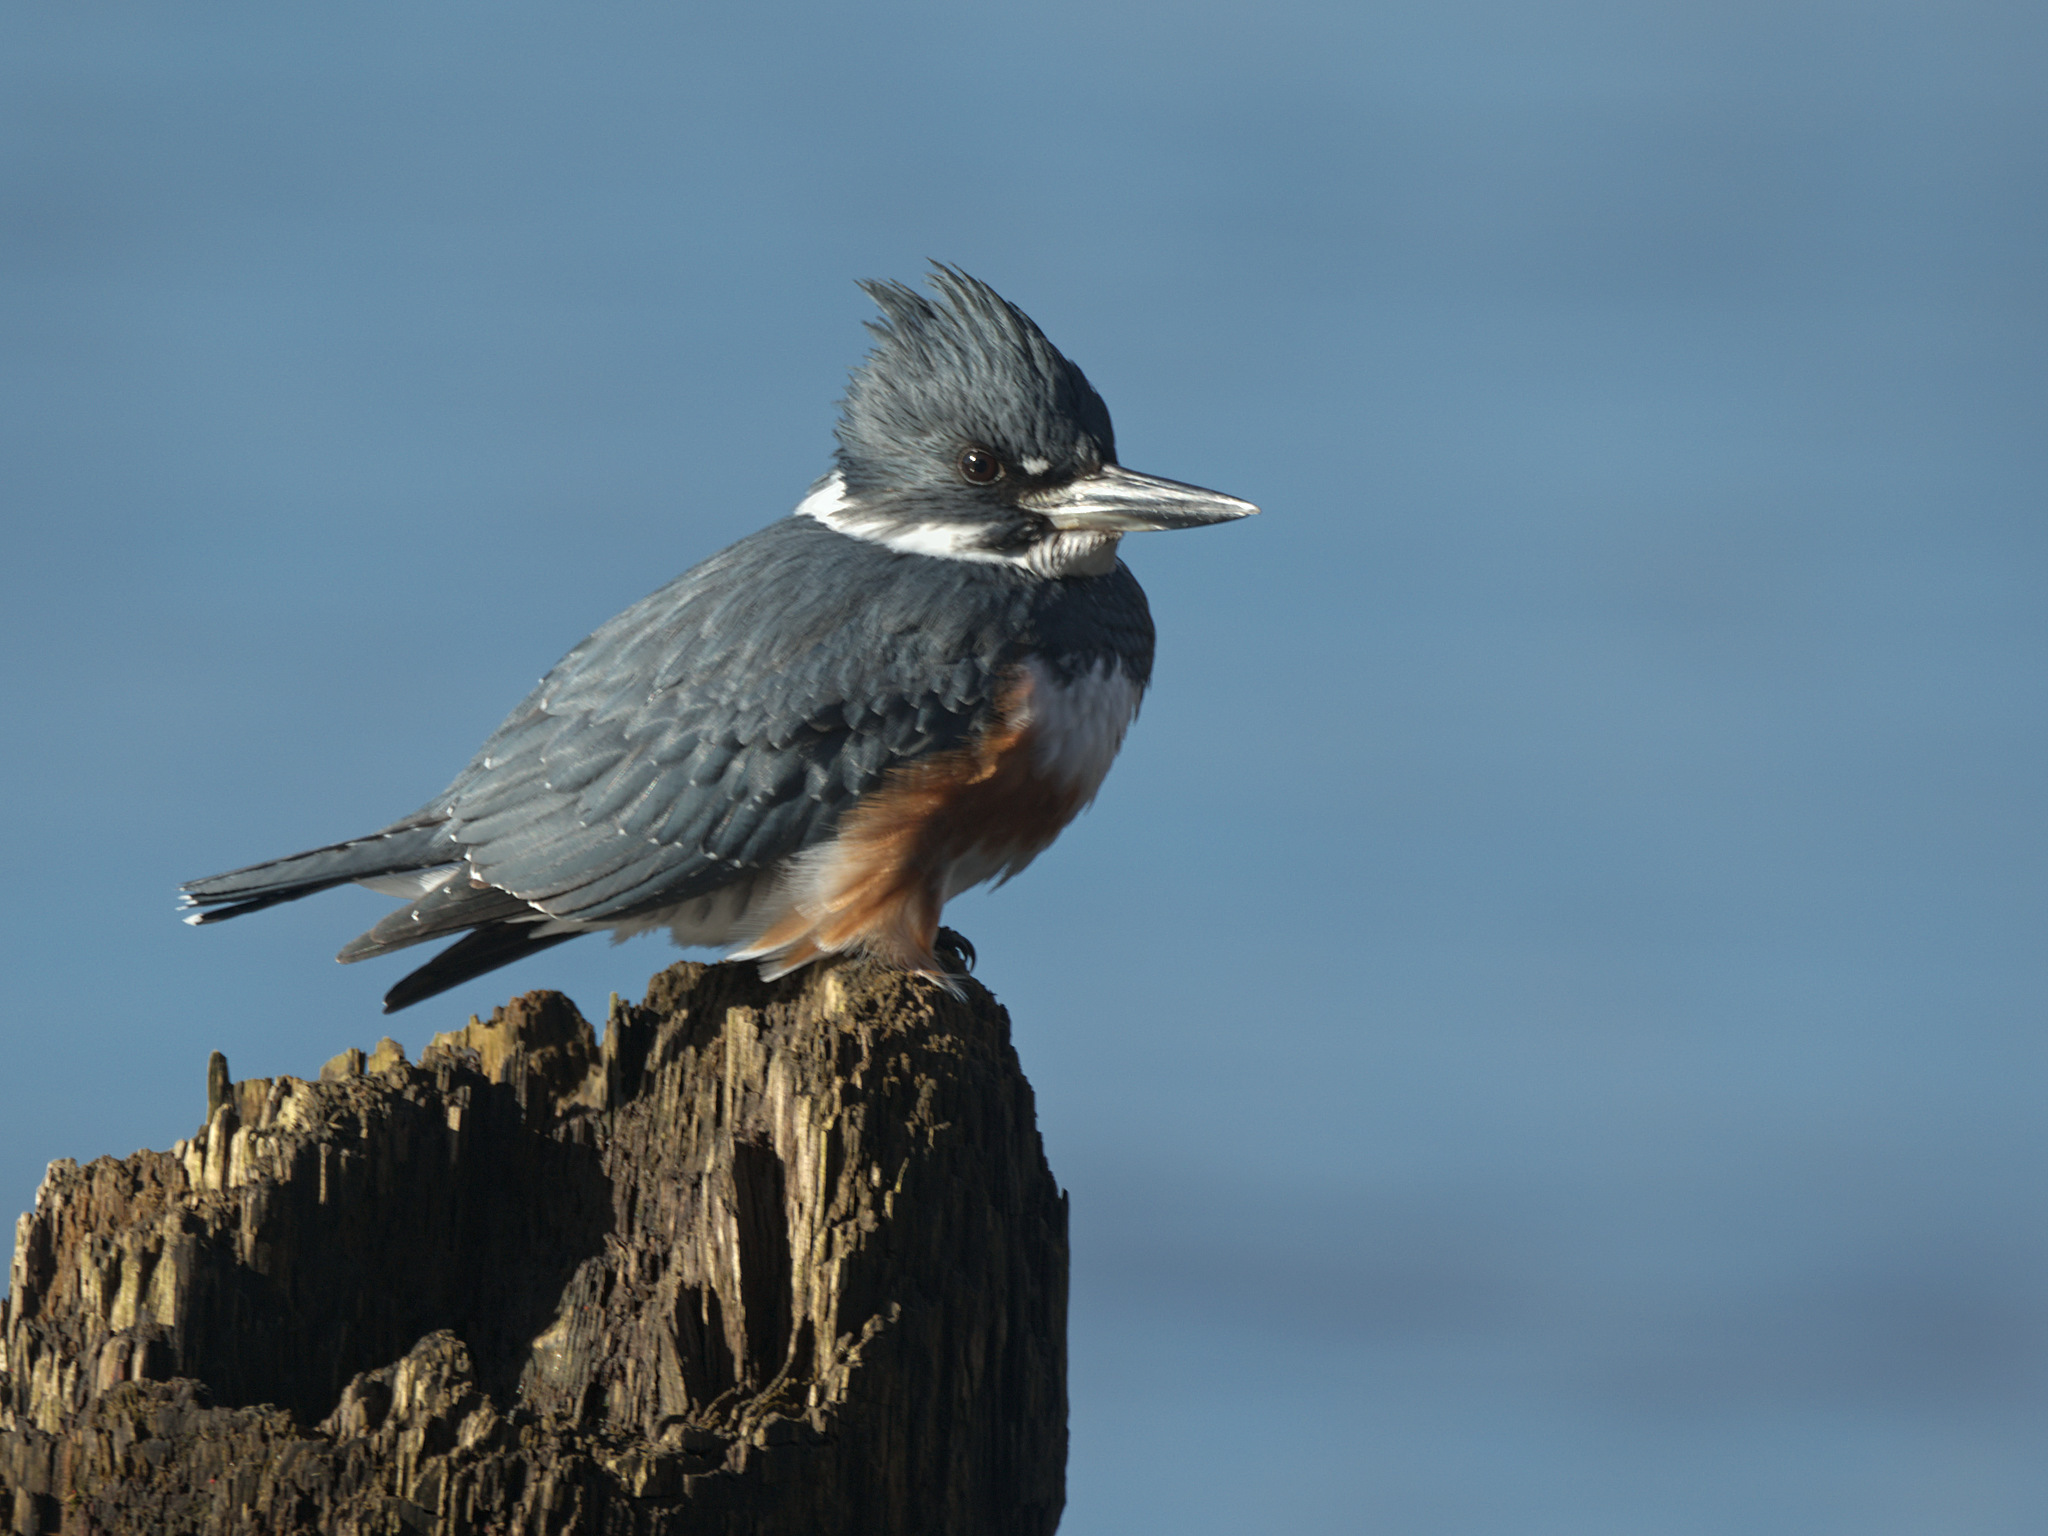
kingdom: Animalia
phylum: Chordata
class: Aves
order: Coraciiformes
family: Alcedinidae
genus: Megaceryle
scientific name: Megaceryle alcyon
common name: Belted kingfisher
